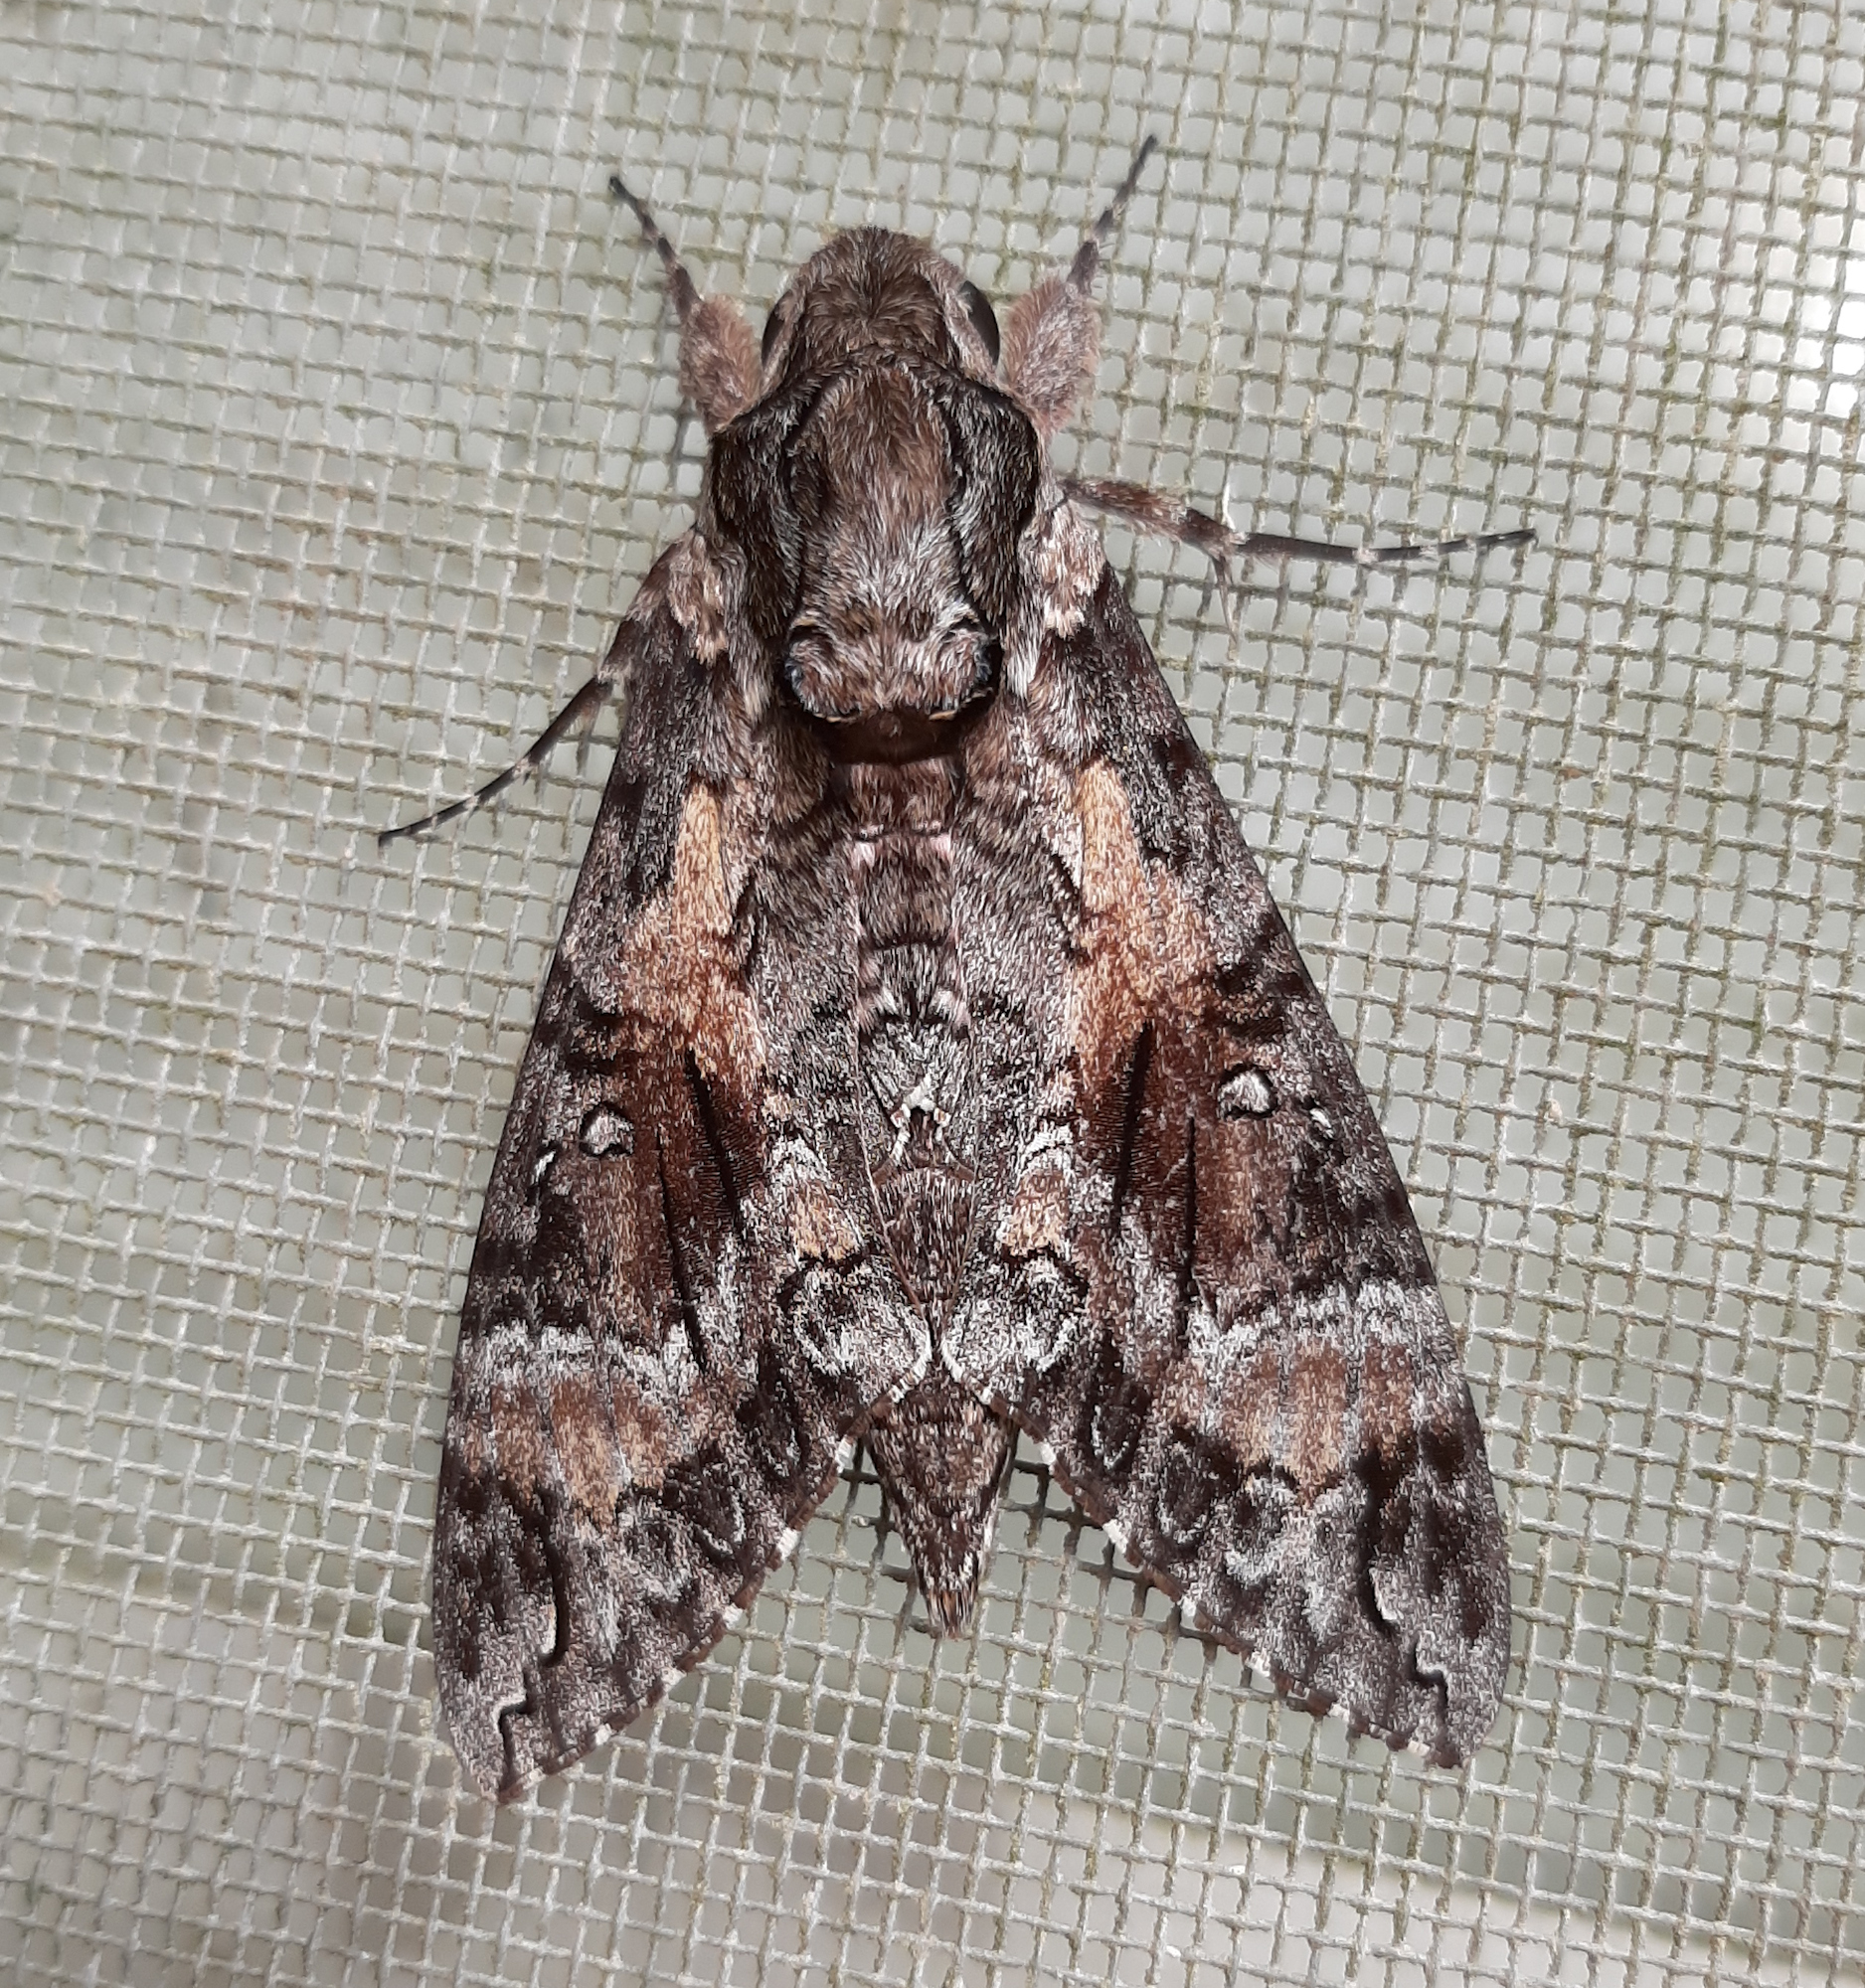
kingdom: Animalia
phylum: Arthropoda
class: Insecta
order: Lepidoptera
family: Sphingidae
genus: Agrius
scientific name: Agrius cingulata
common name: Pink-spotted hawkmoth
